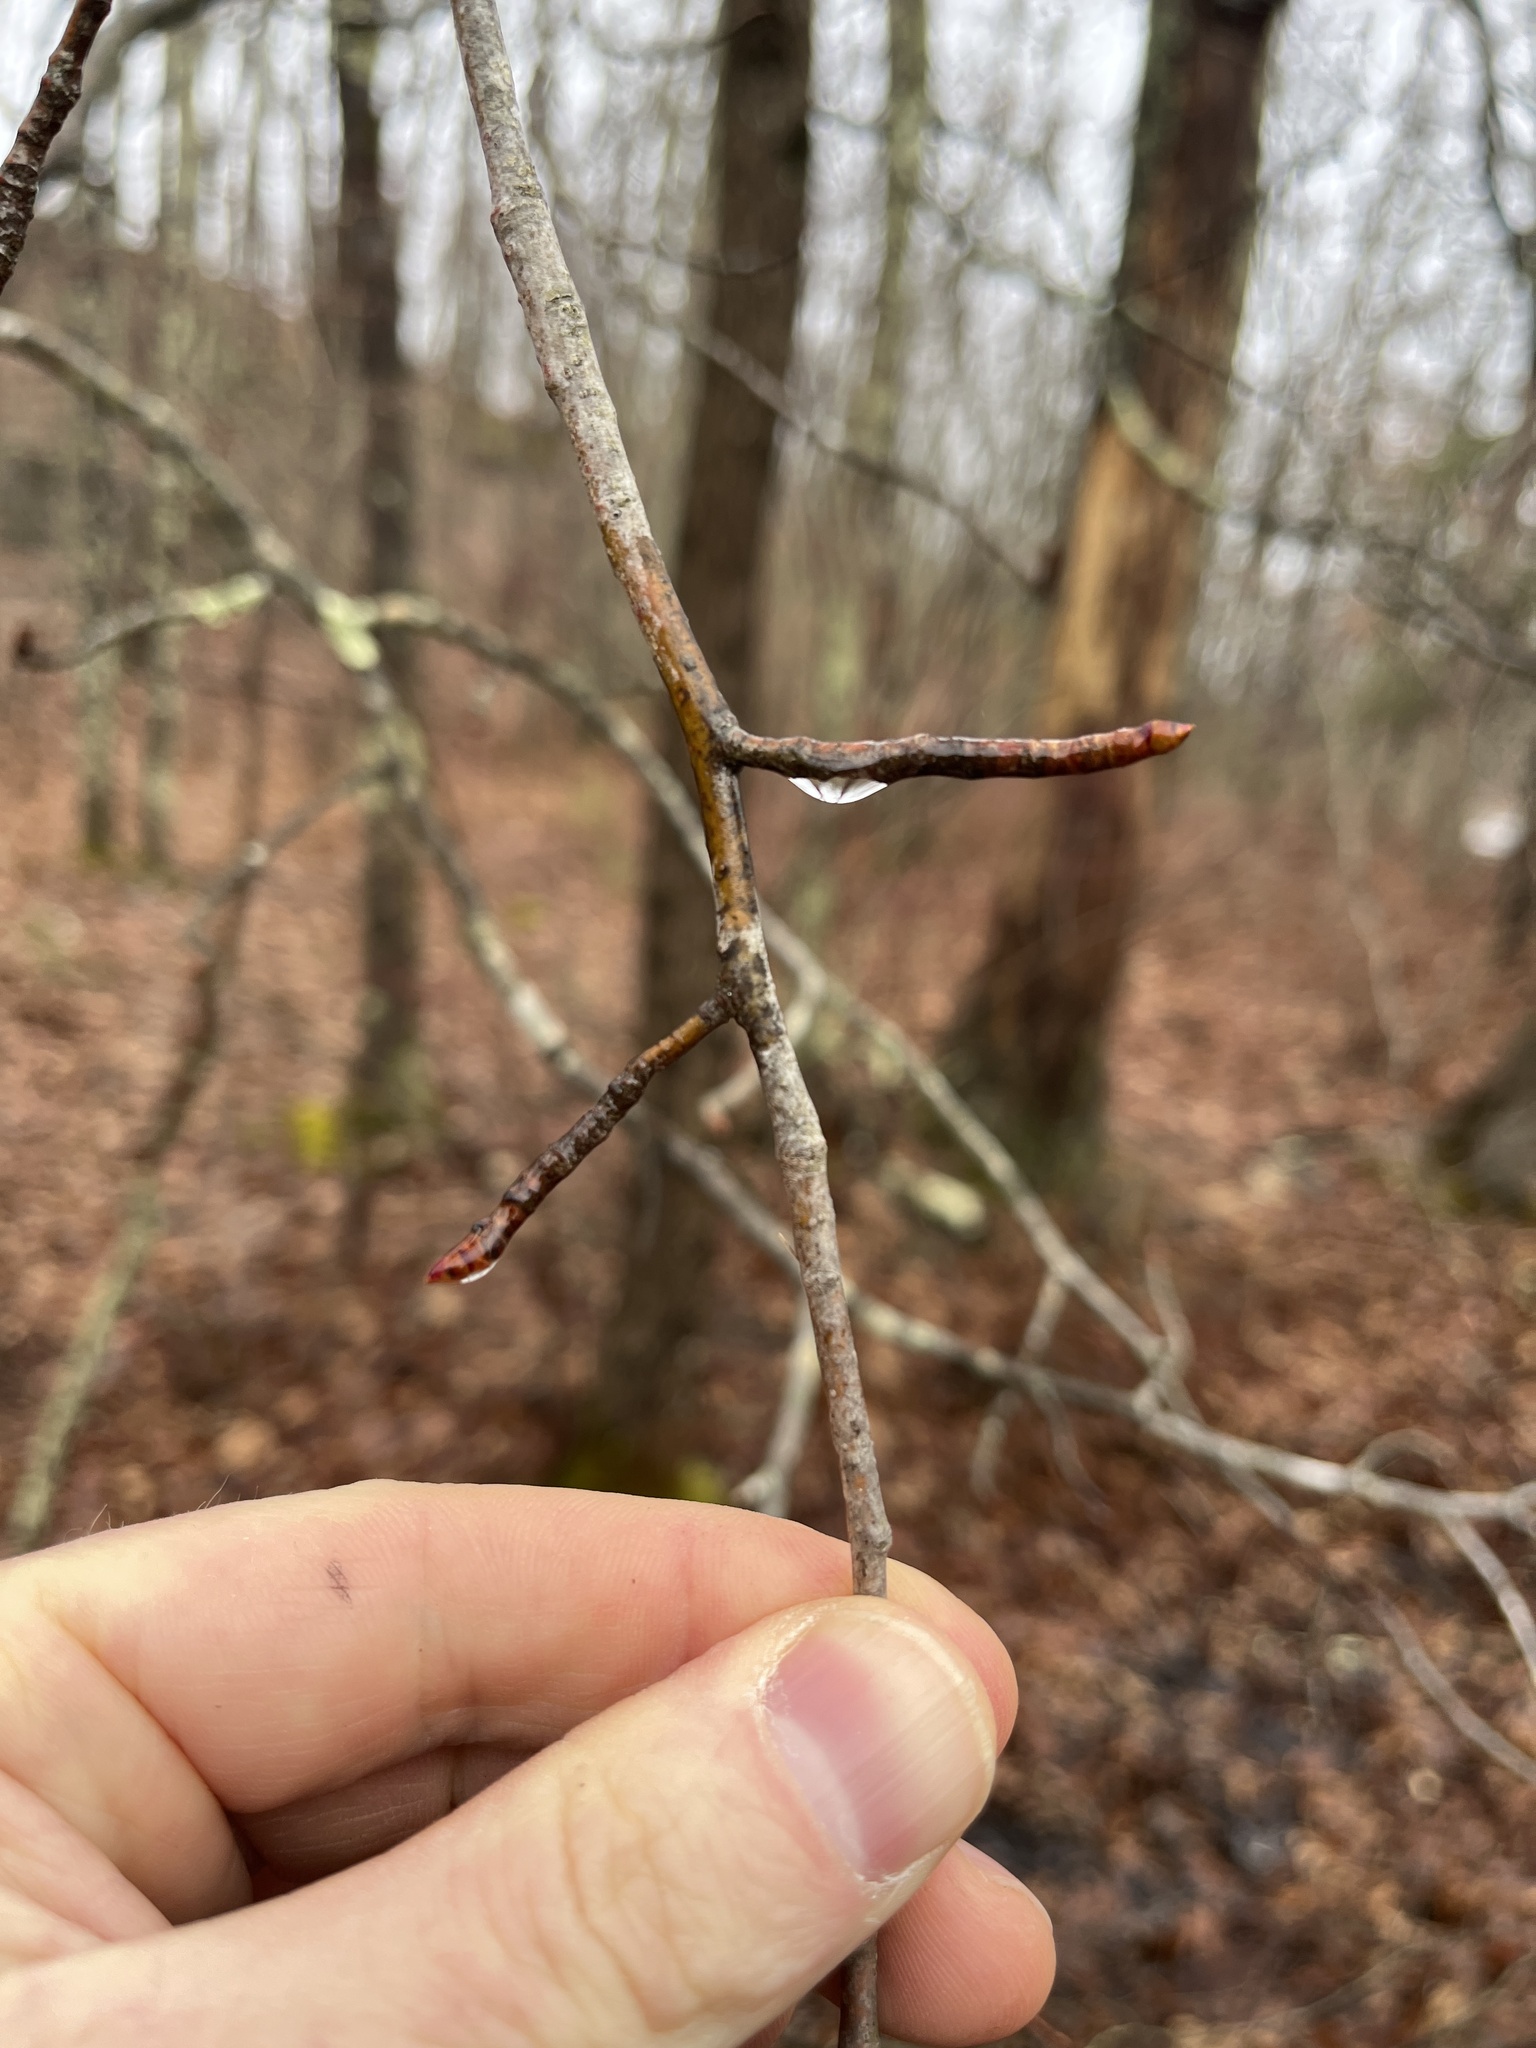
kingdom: Plantae
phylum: Tracheophyta
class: Magnoliopsida
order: Cornales
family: Nyssaceae
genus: Nyssa
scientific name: Nyssa sylvatica
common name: Black tupelo
